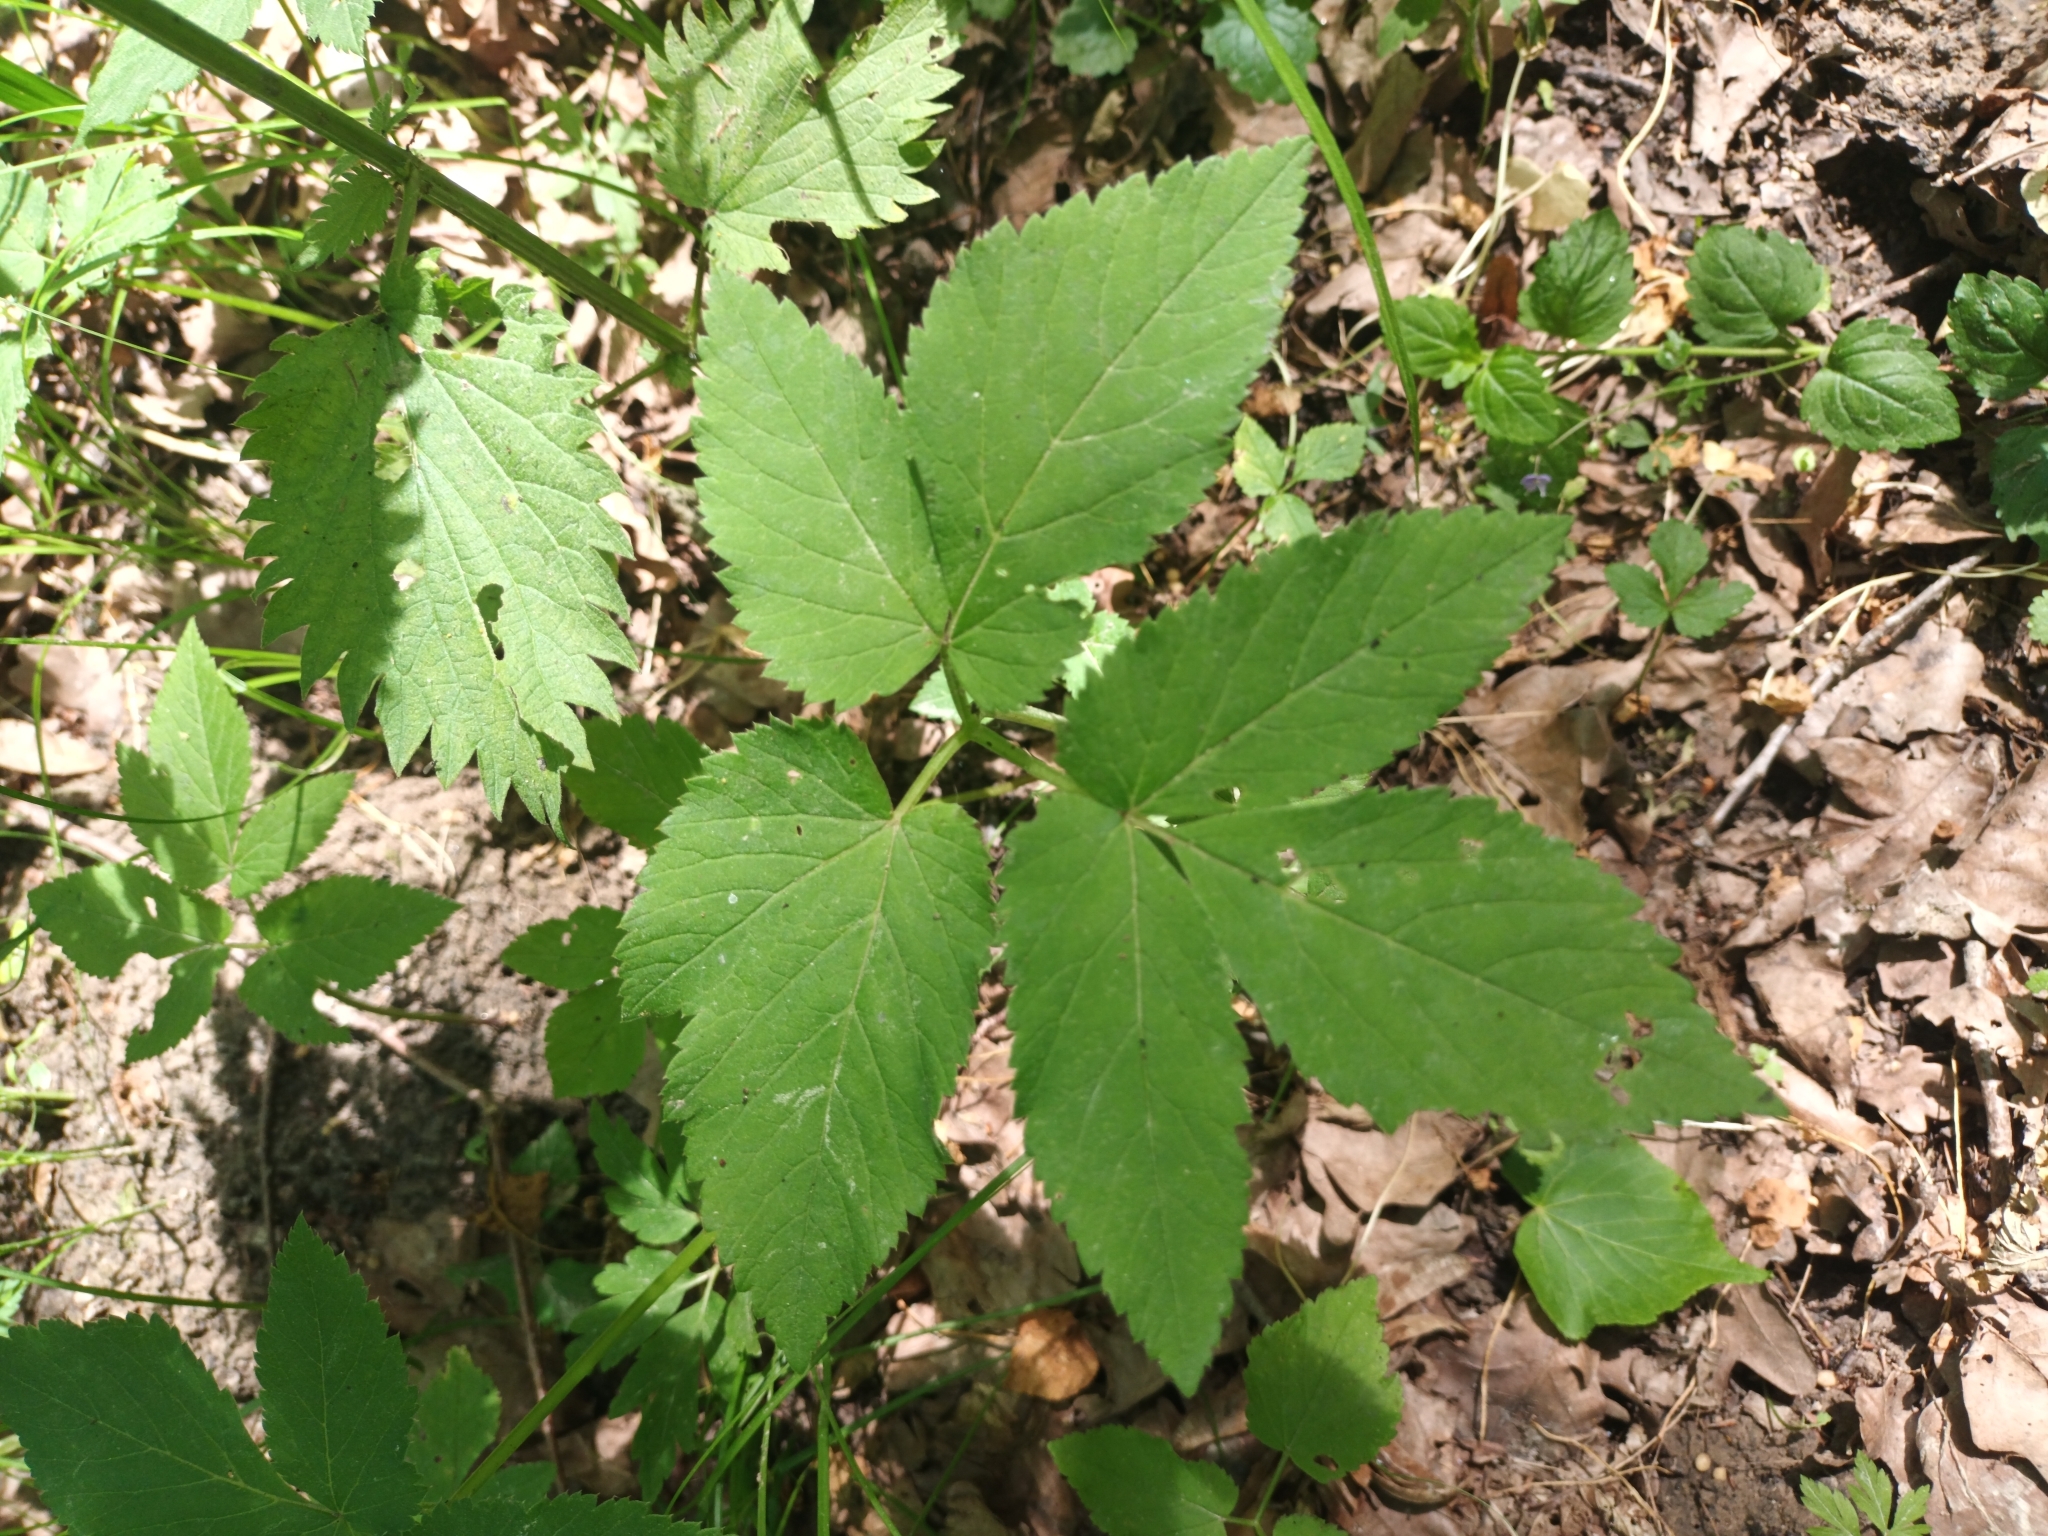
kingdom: Plantae
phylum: Tracheophyta
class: Magnoliopsida
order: Apiales
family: Apiaceae
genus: Aegopodium
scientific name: Aegopodium podagraria
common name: Ground-elder
